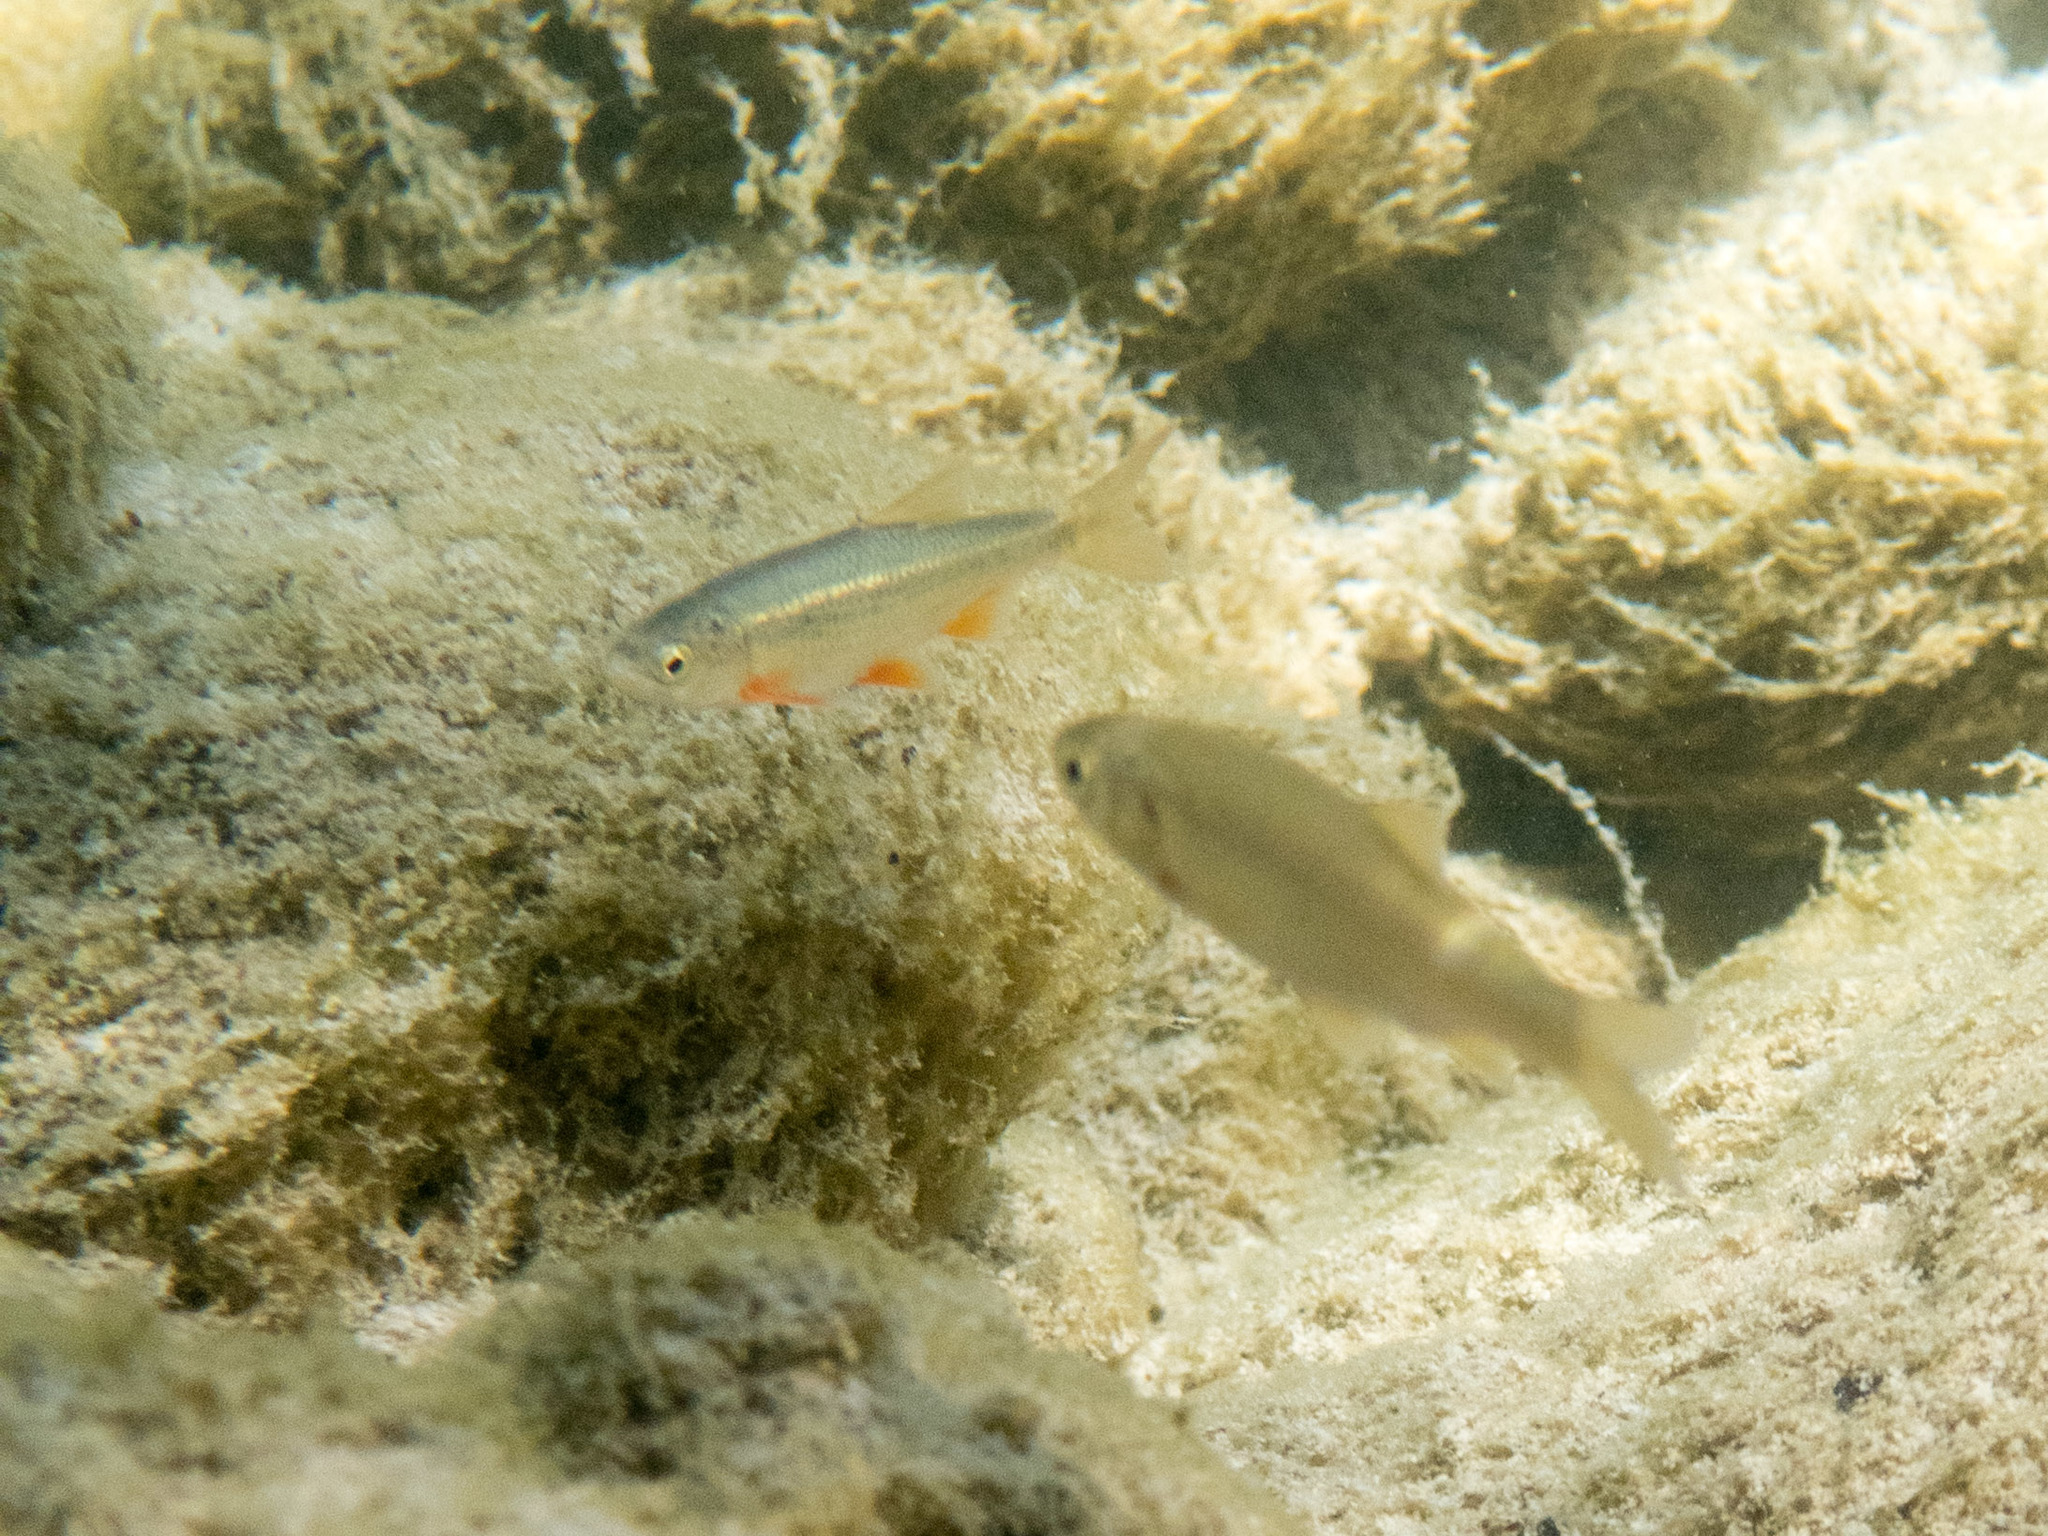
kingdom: Animalia
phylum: Chordata
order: Cypriniformes
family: Cyprinidae
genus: Sarmarutilus
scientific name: Sarmarutilus rubilio
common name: Rovella
